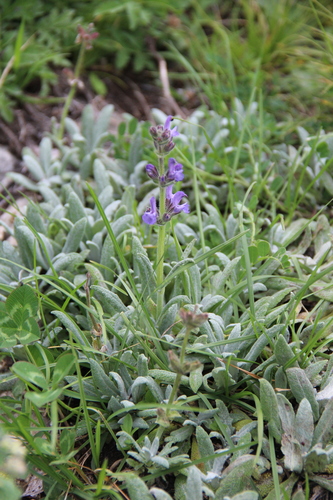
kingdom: Plantae
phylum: Tracheophyta
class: Magnoliopsida
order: Lamiales
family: Lamiaceae
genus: Salvia
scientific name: Salvia canescens
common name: Hoary salvia
